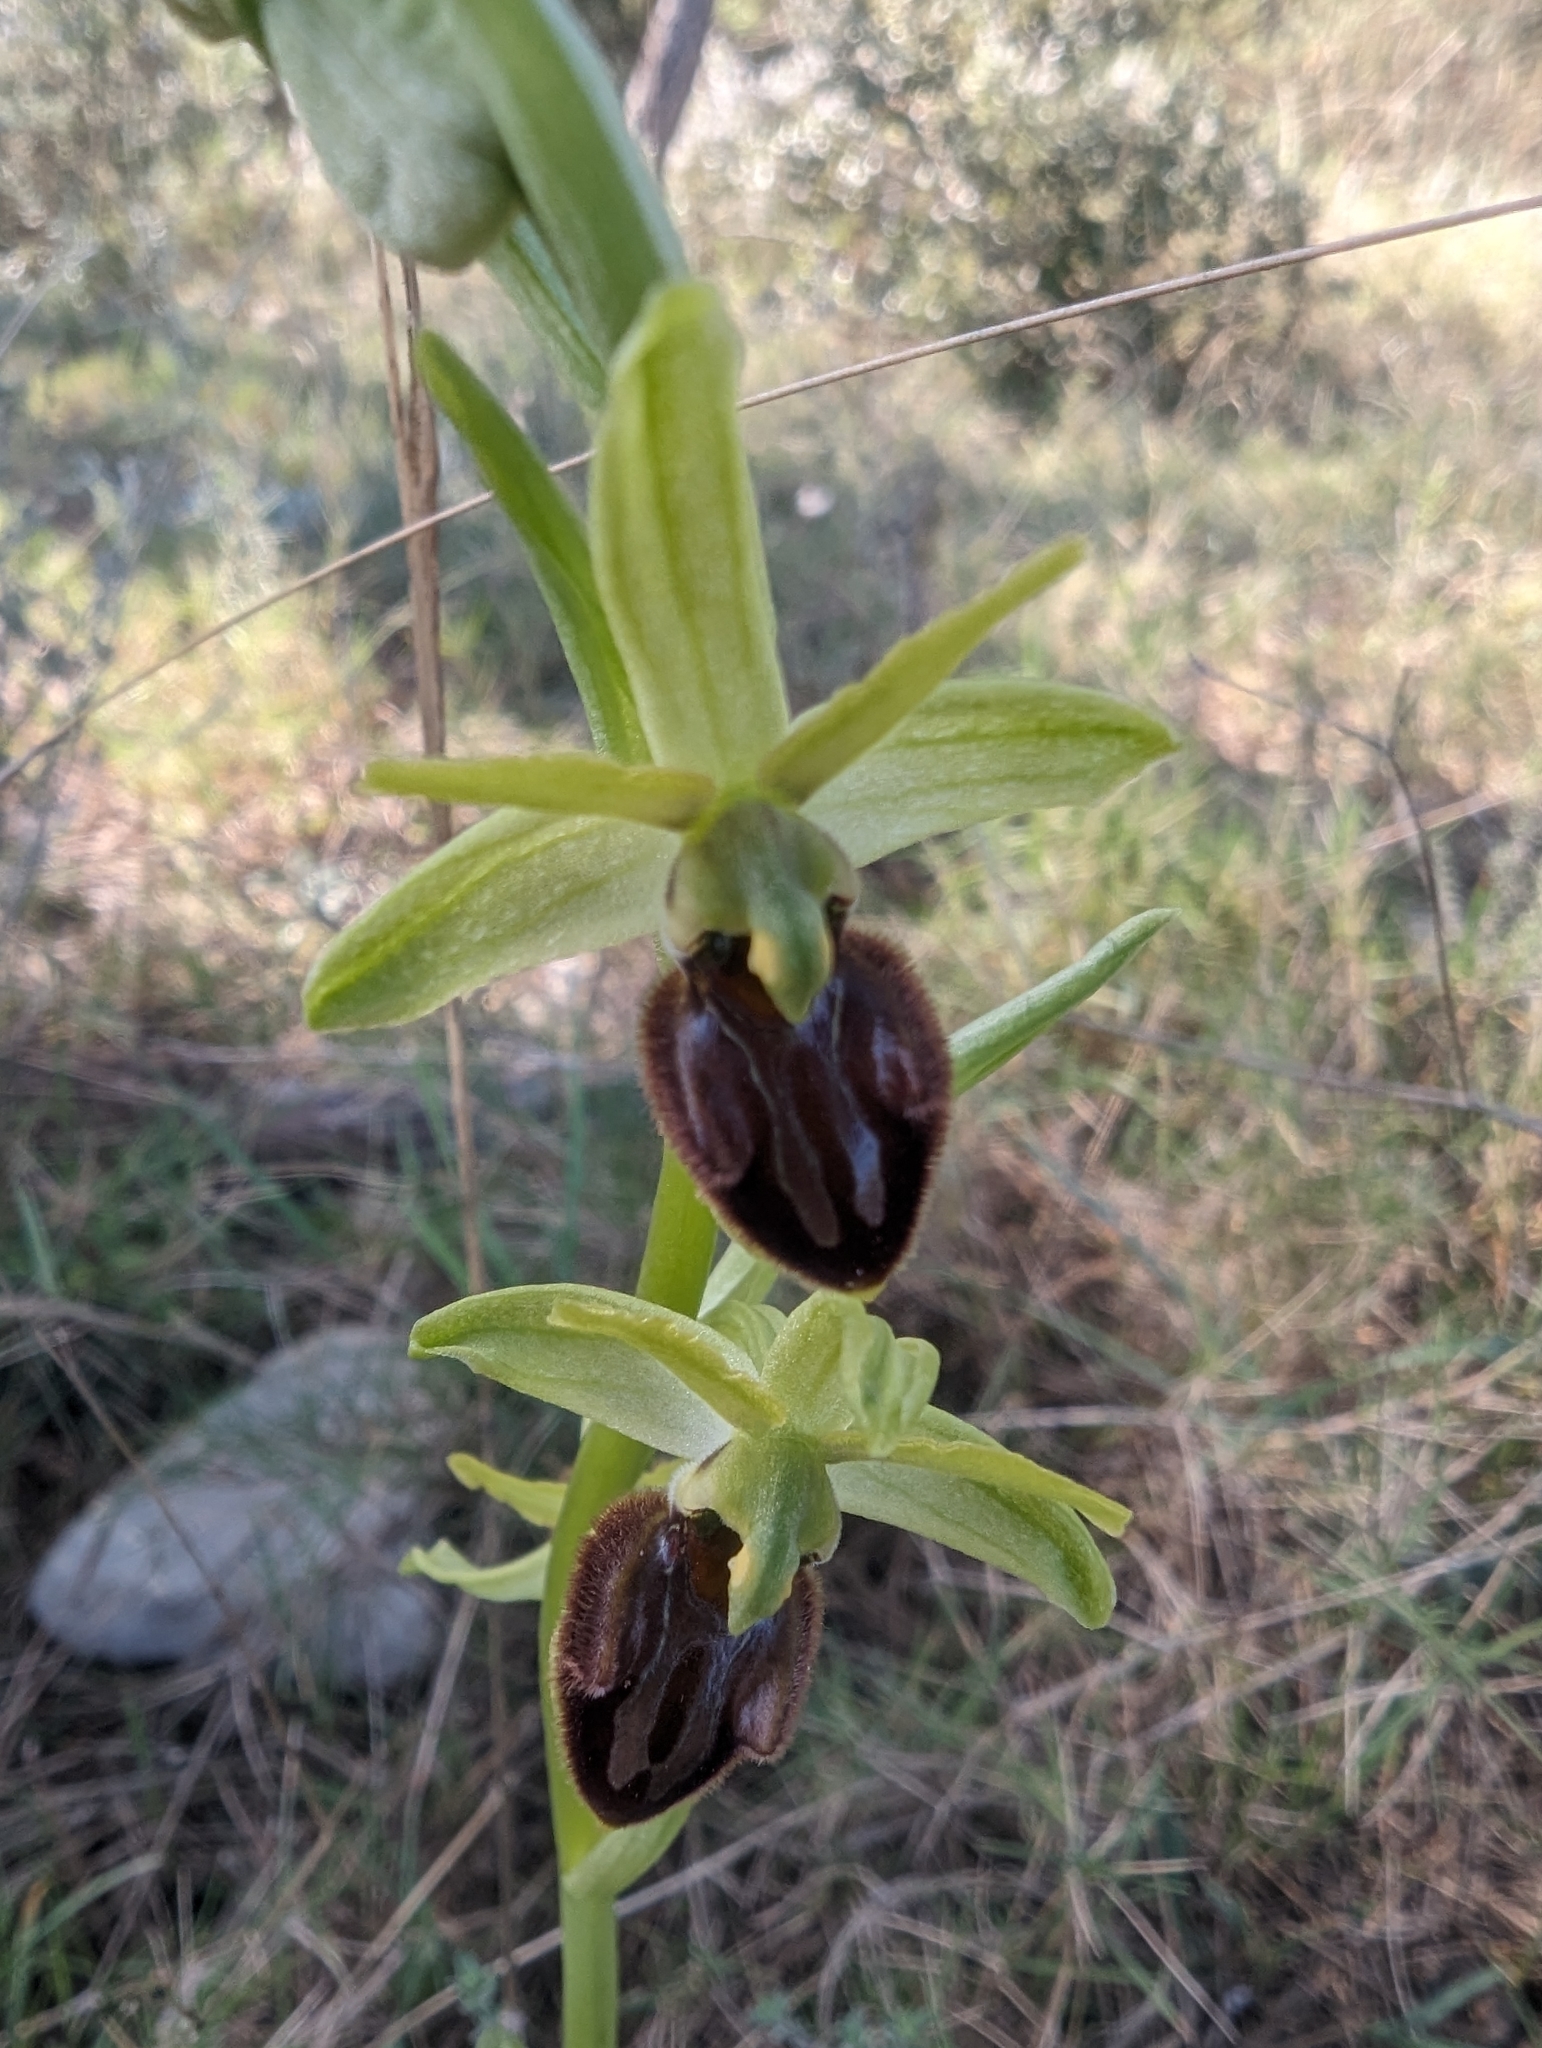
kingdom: Plantae
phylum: Tracheophyta
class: Liliopsida
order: Asparagales
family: Orchidaceae
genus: Ophrys
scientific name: Ophrys sphegodes
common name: Early spider-orchid
